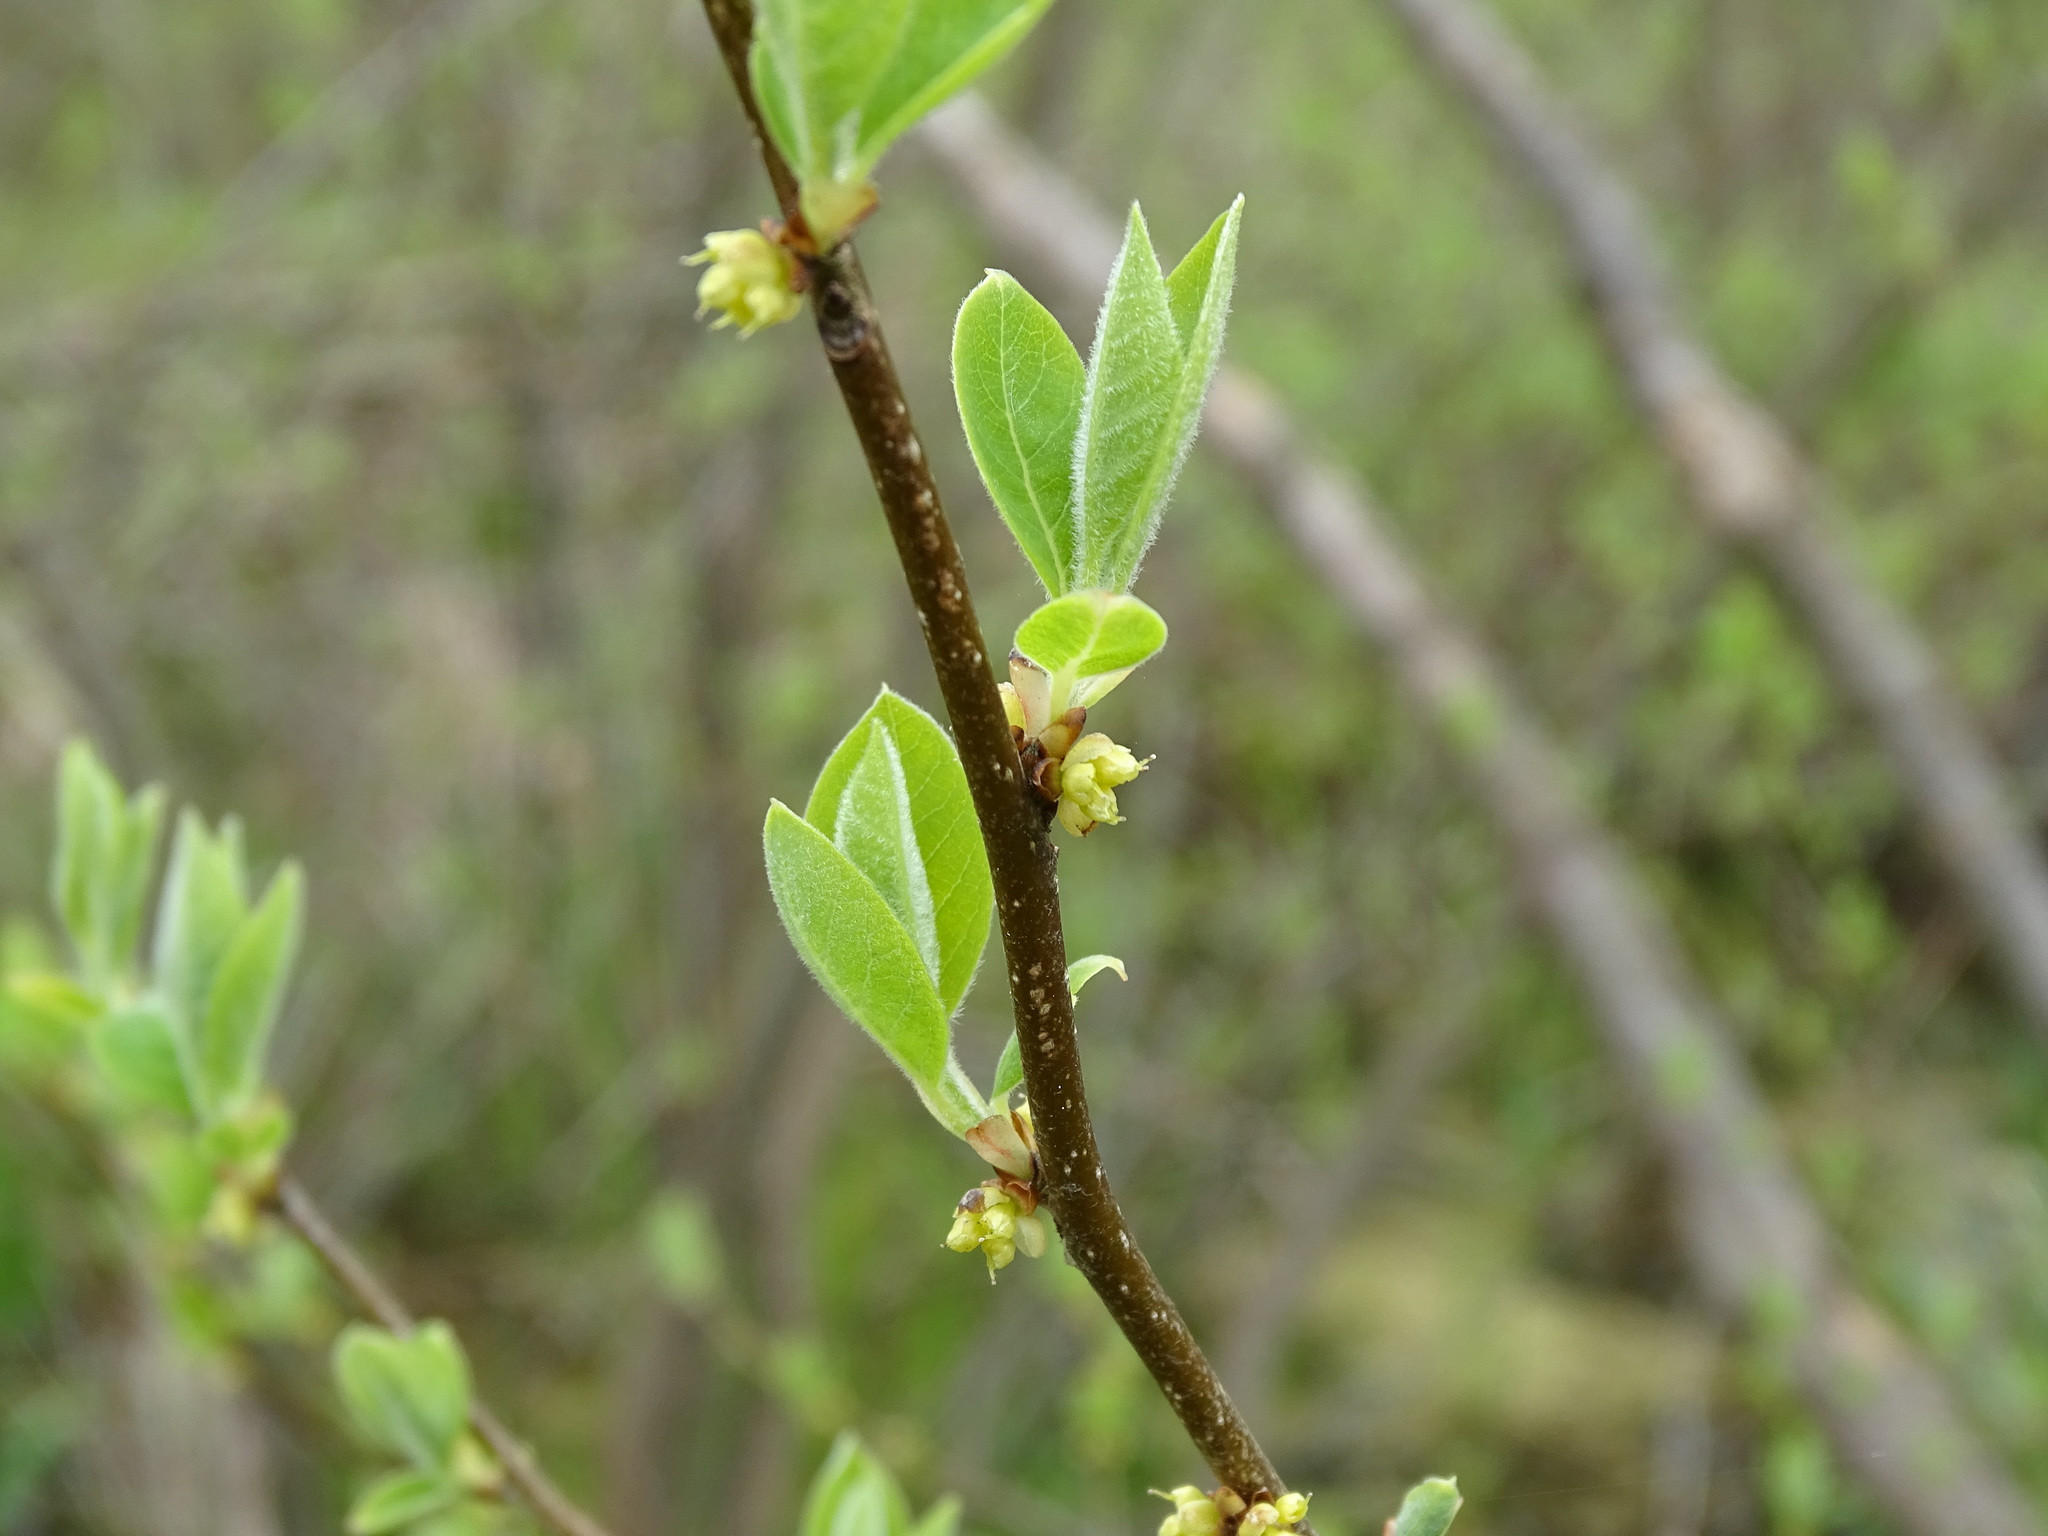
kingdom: Plantae
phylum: Tracheophyta
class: Magnoliopsida
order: Laurales
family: Lauraceae
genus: Lindera
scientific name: Lindera benzoin
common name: Spicebush
